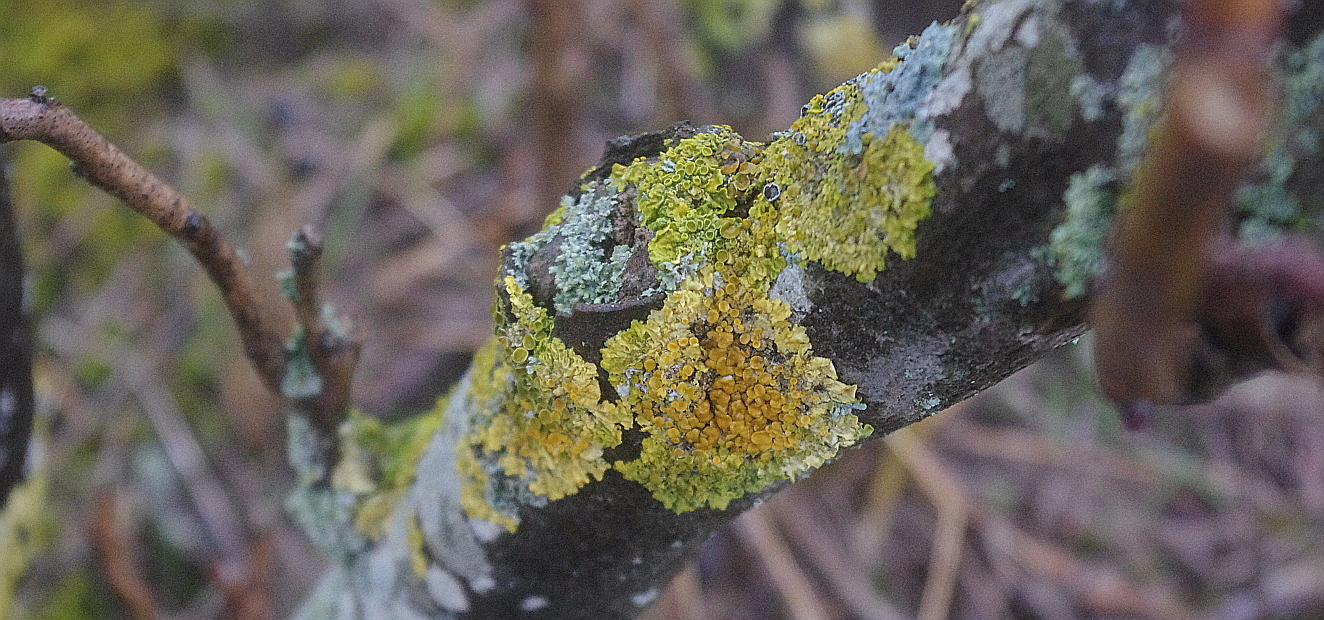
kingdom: Fungi
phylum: Ascomycota
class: Lecanoromycetes
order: Teloschistales
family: Teloschistaceae
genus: Xanthoria
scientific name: Xanthoria parietina
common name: Common orange lichen
